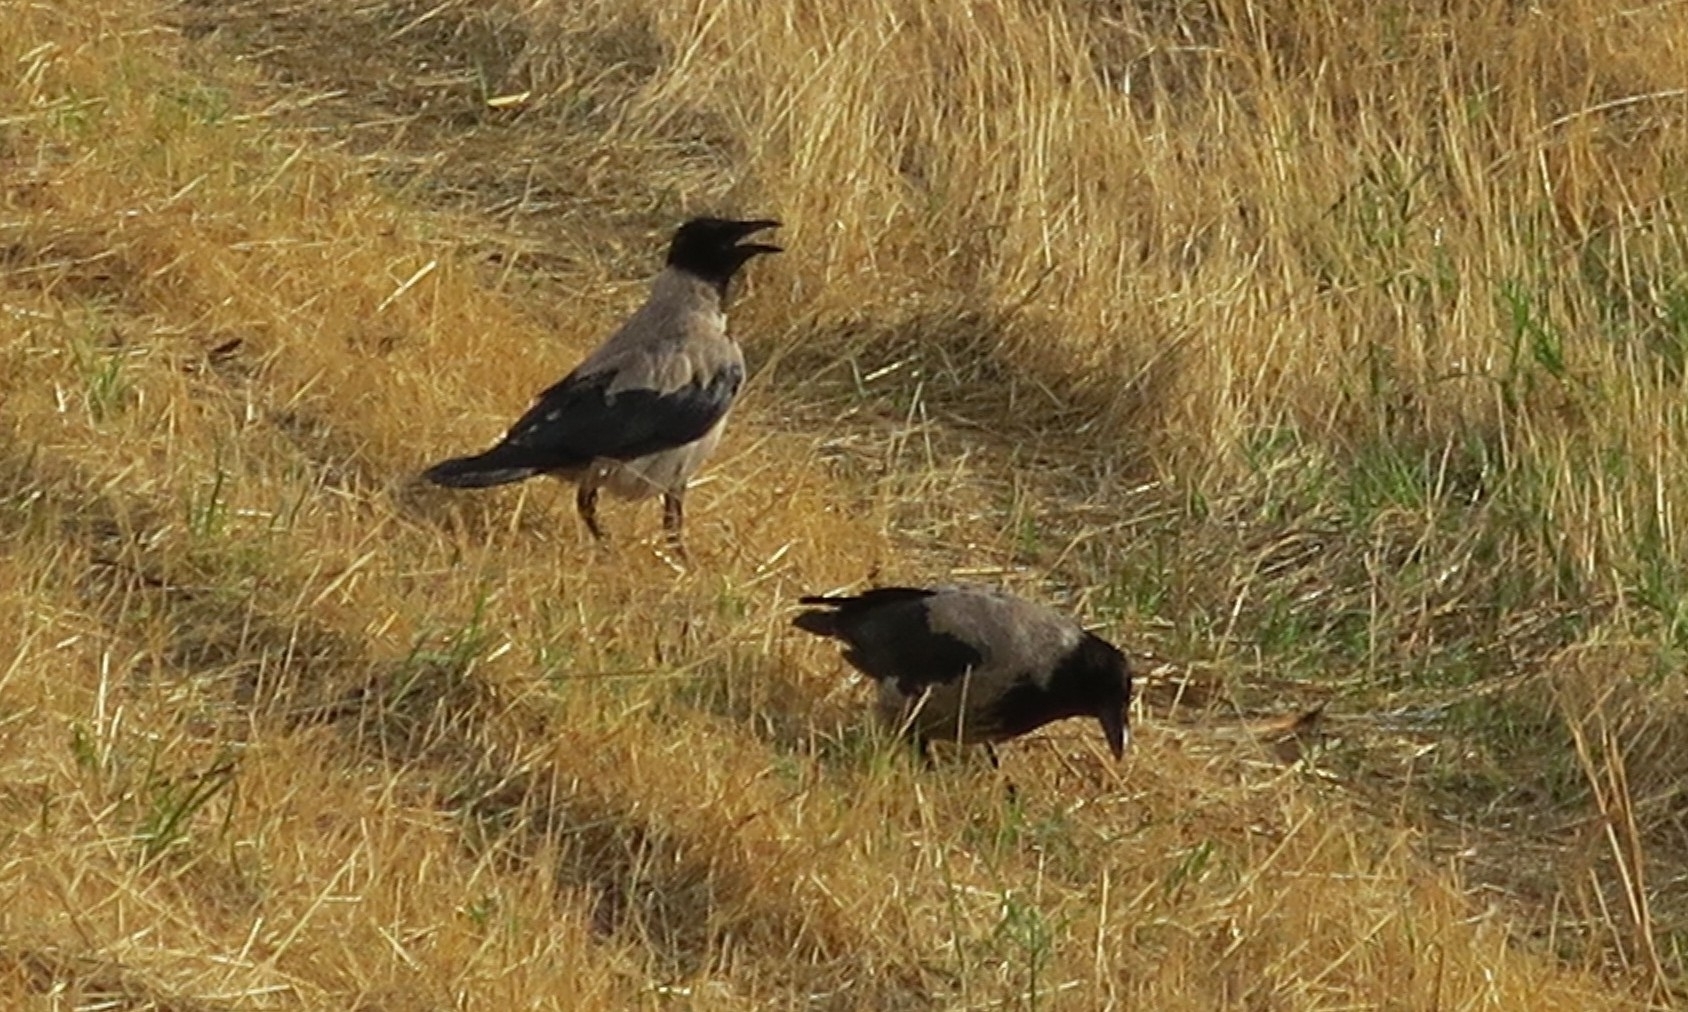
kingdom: Animalia
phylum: Chordata
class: Aves
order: Passeriformes
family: Corvidae
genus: Corvus
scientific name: Corvus cornix
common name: Hooded crow
